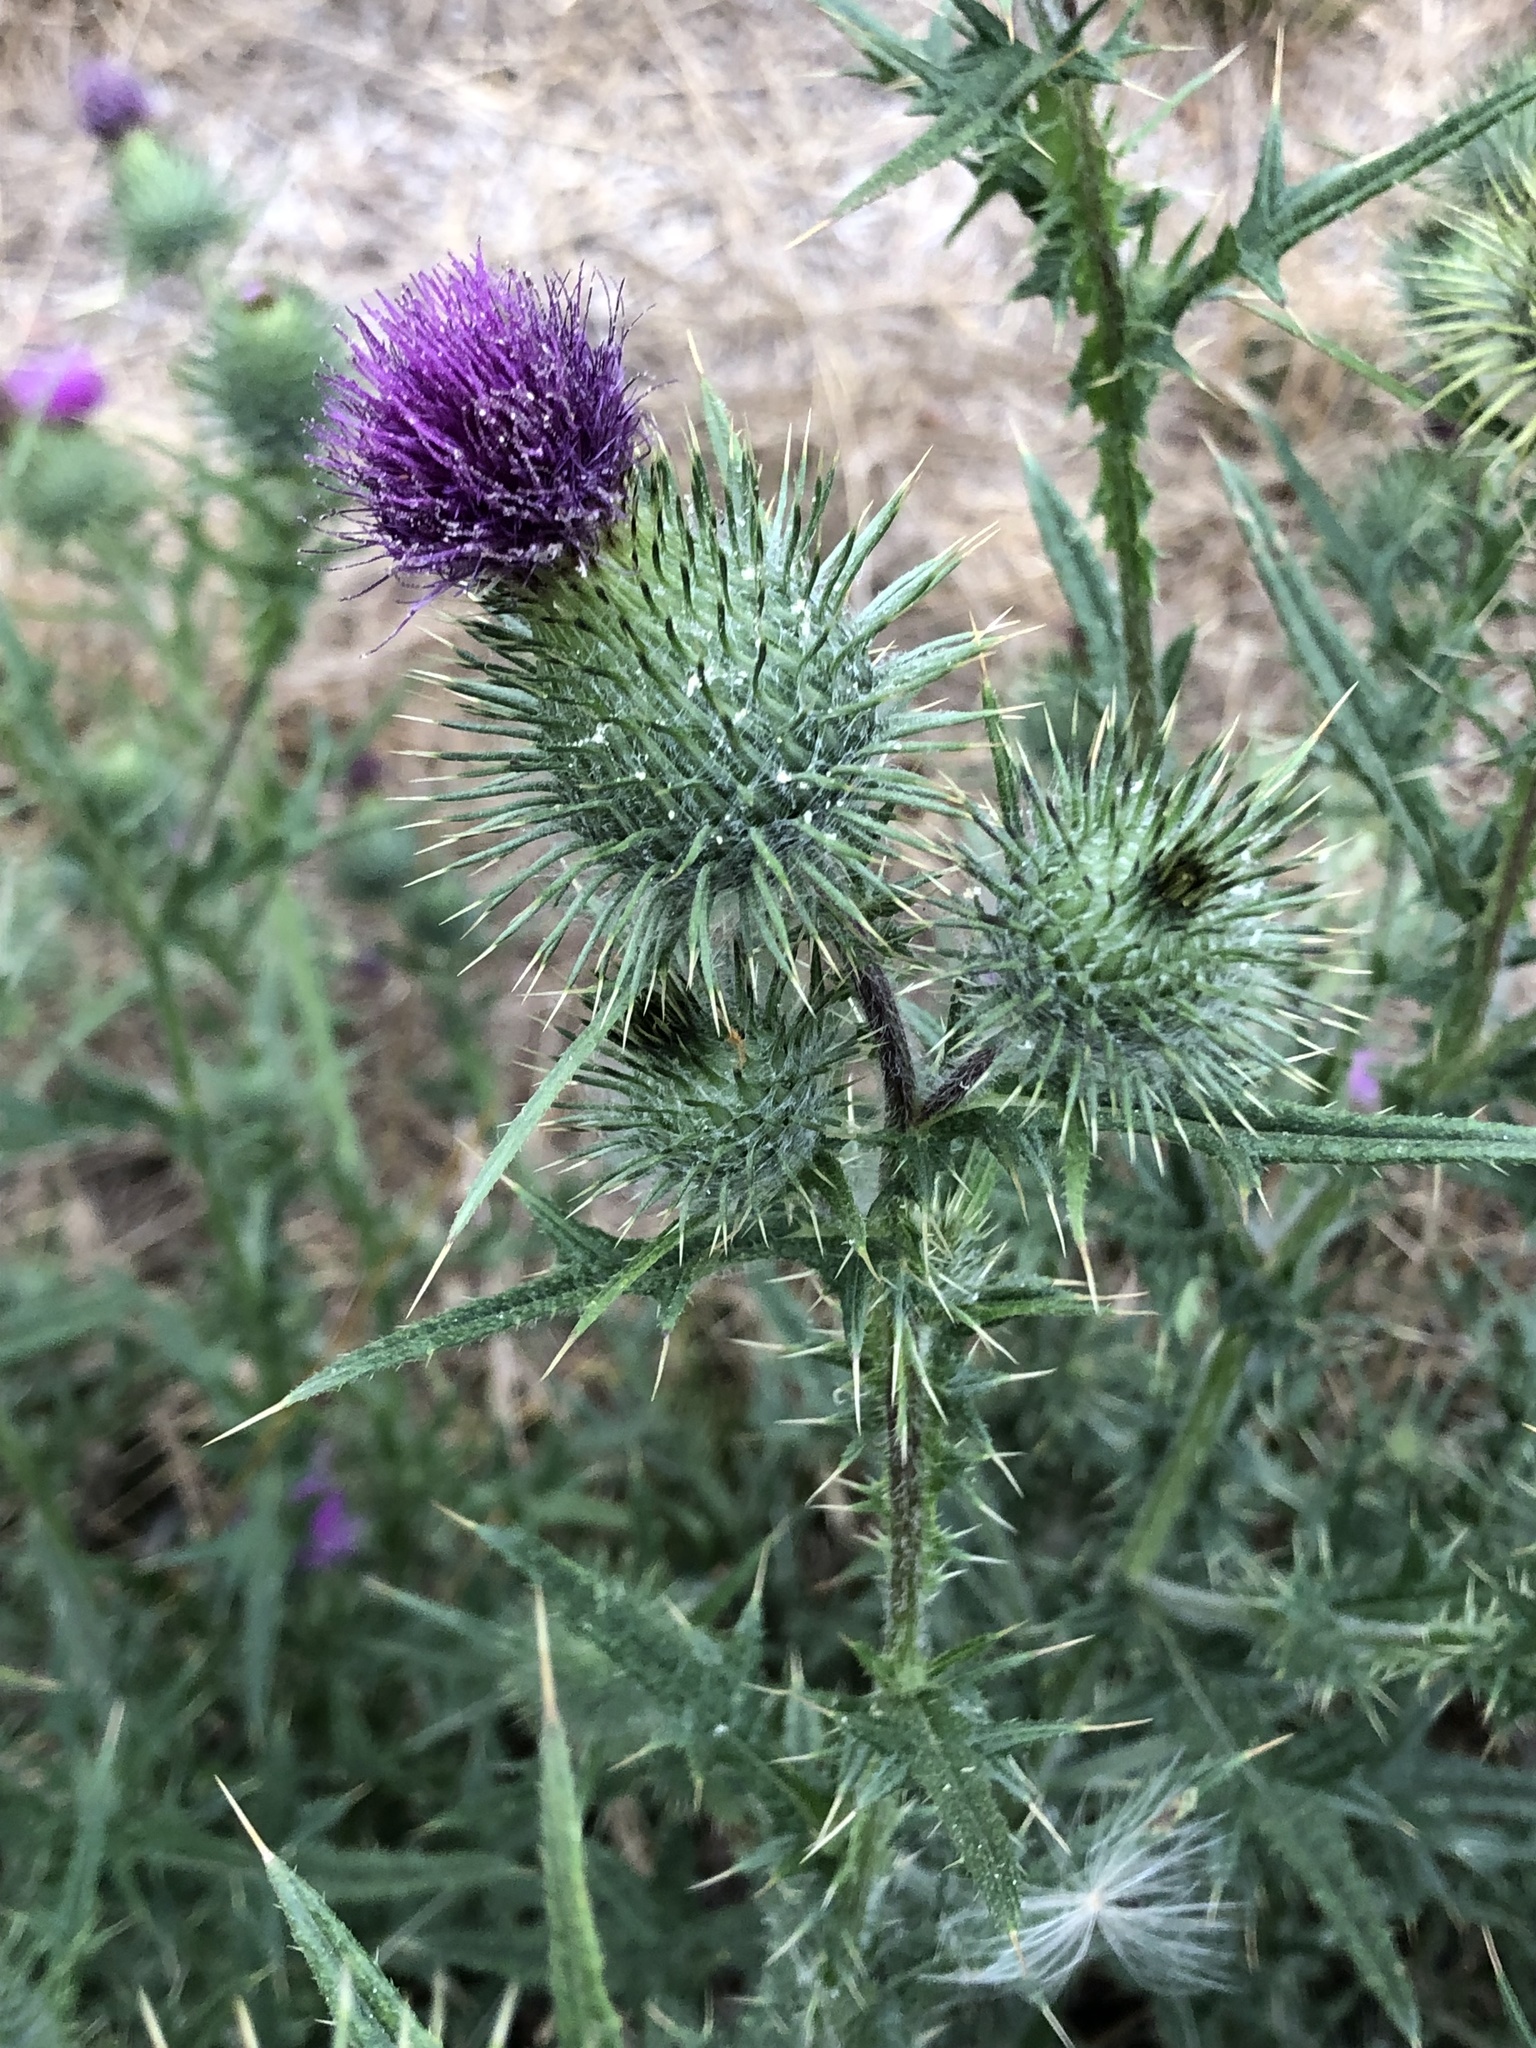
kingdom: Plantae
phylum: Tracheophyta
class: Magnoliopsida
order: Asterales
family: Asteraceae
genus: Cirsium
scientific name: Cirsium vulgare
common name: Bull thistle
